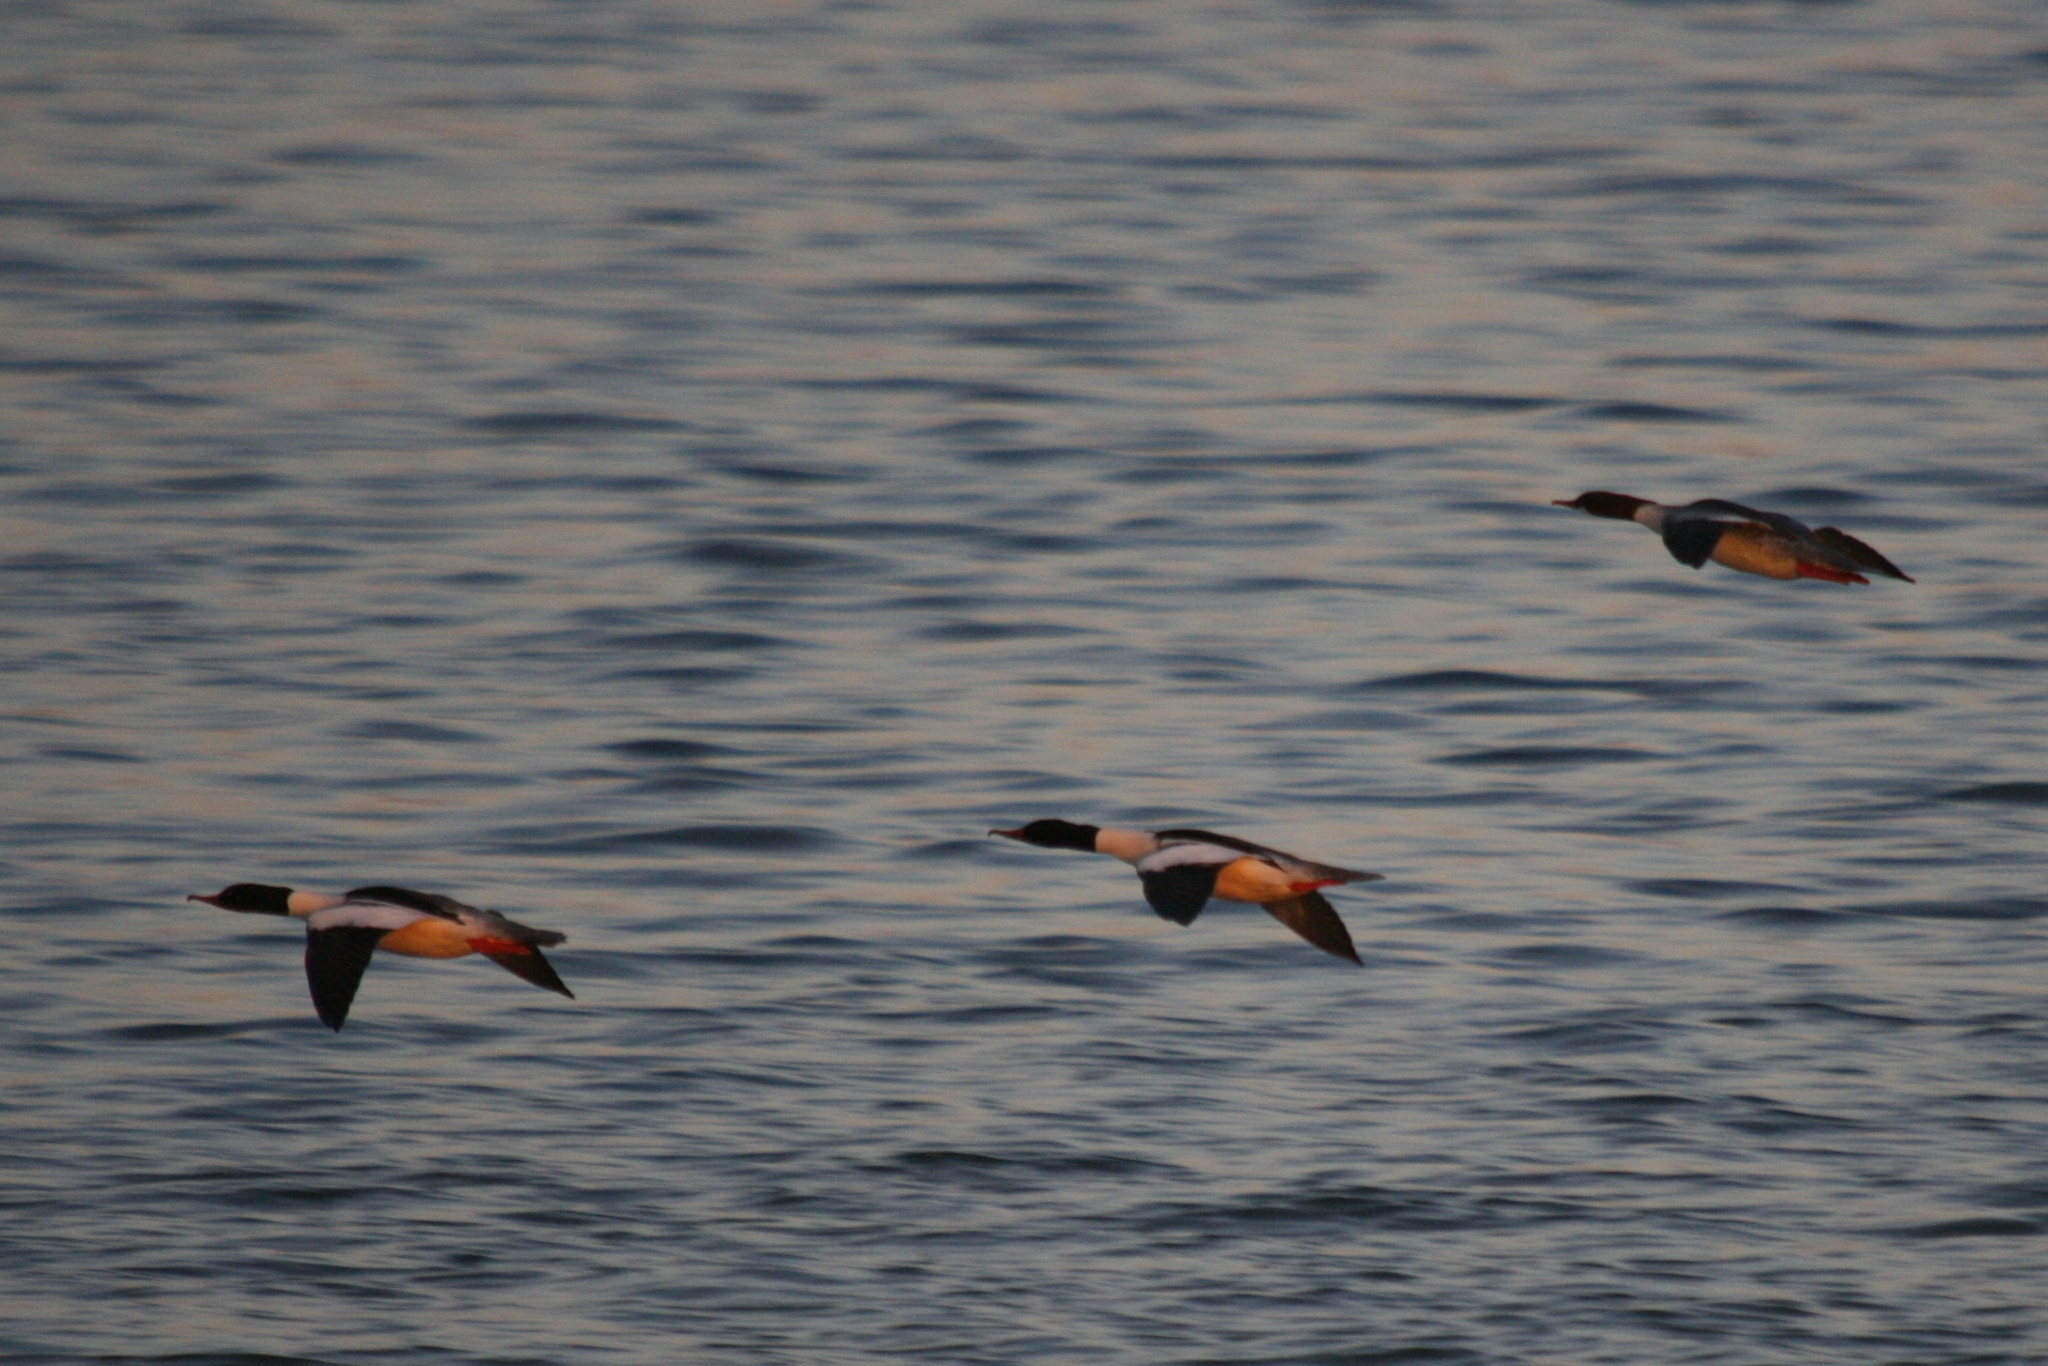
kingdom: Animalia
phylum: Chordata
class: Aves
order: Anseriformes
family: Anatidae
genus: Mergus
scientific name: Mergus merganser
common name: Common merganser
